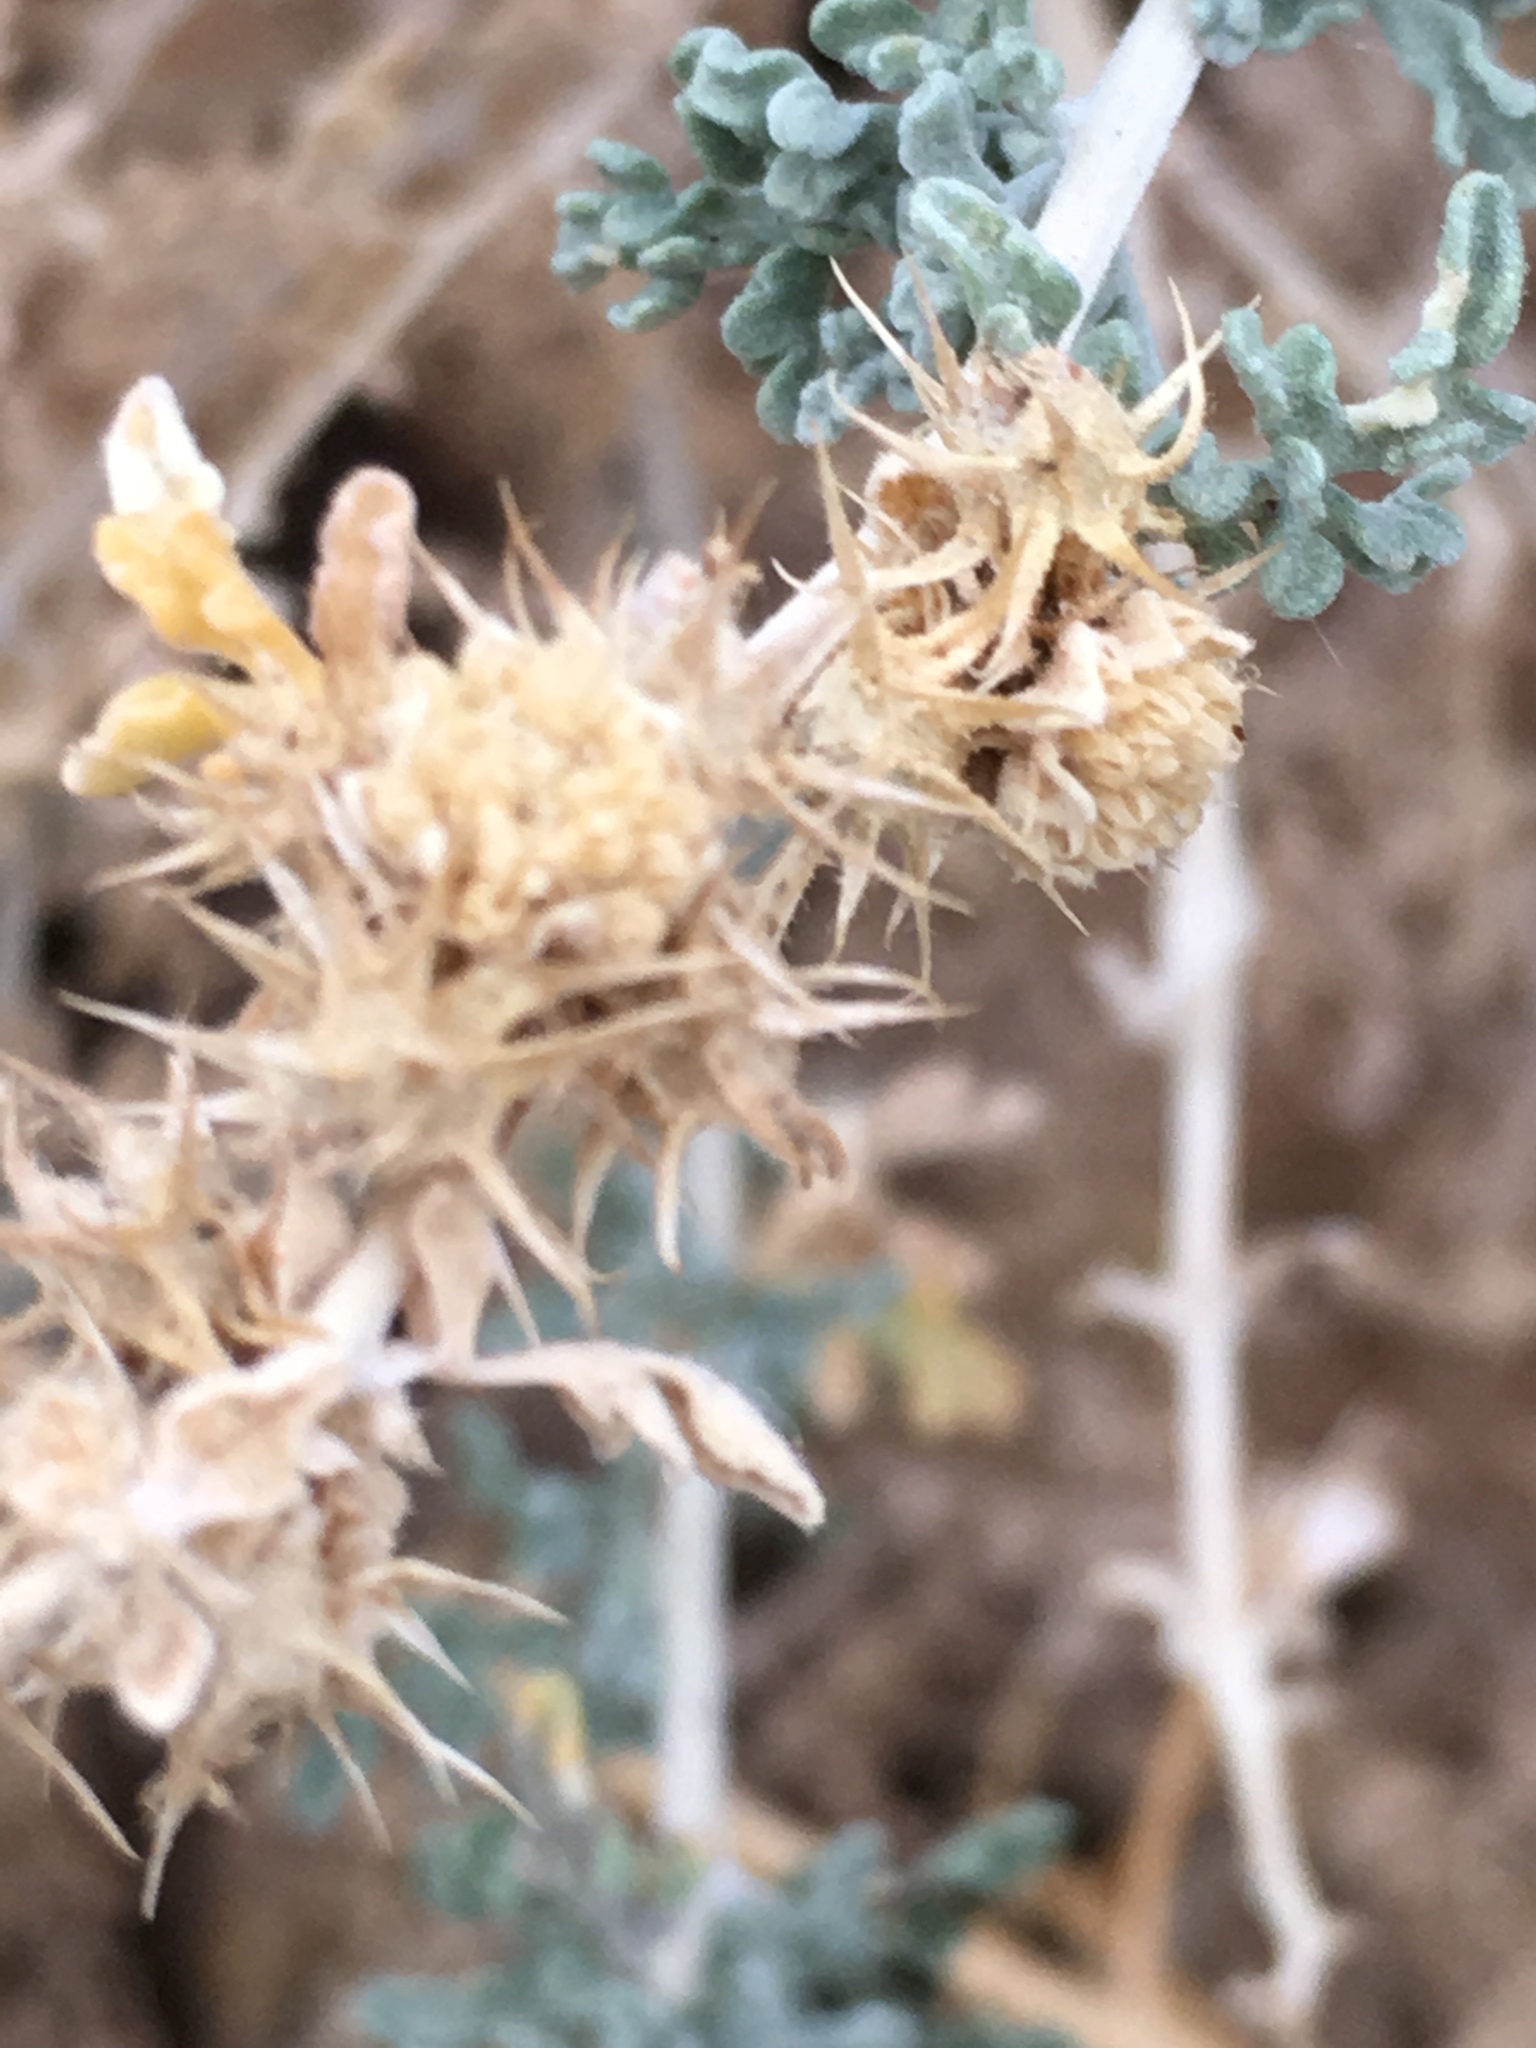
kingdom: Plantae
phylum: Tracheophyta
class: Magnoliopsida
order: Asterales
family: Asteraceae
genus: Ambrosia
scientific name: Ambrosia dumosa
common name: Bur-sage
